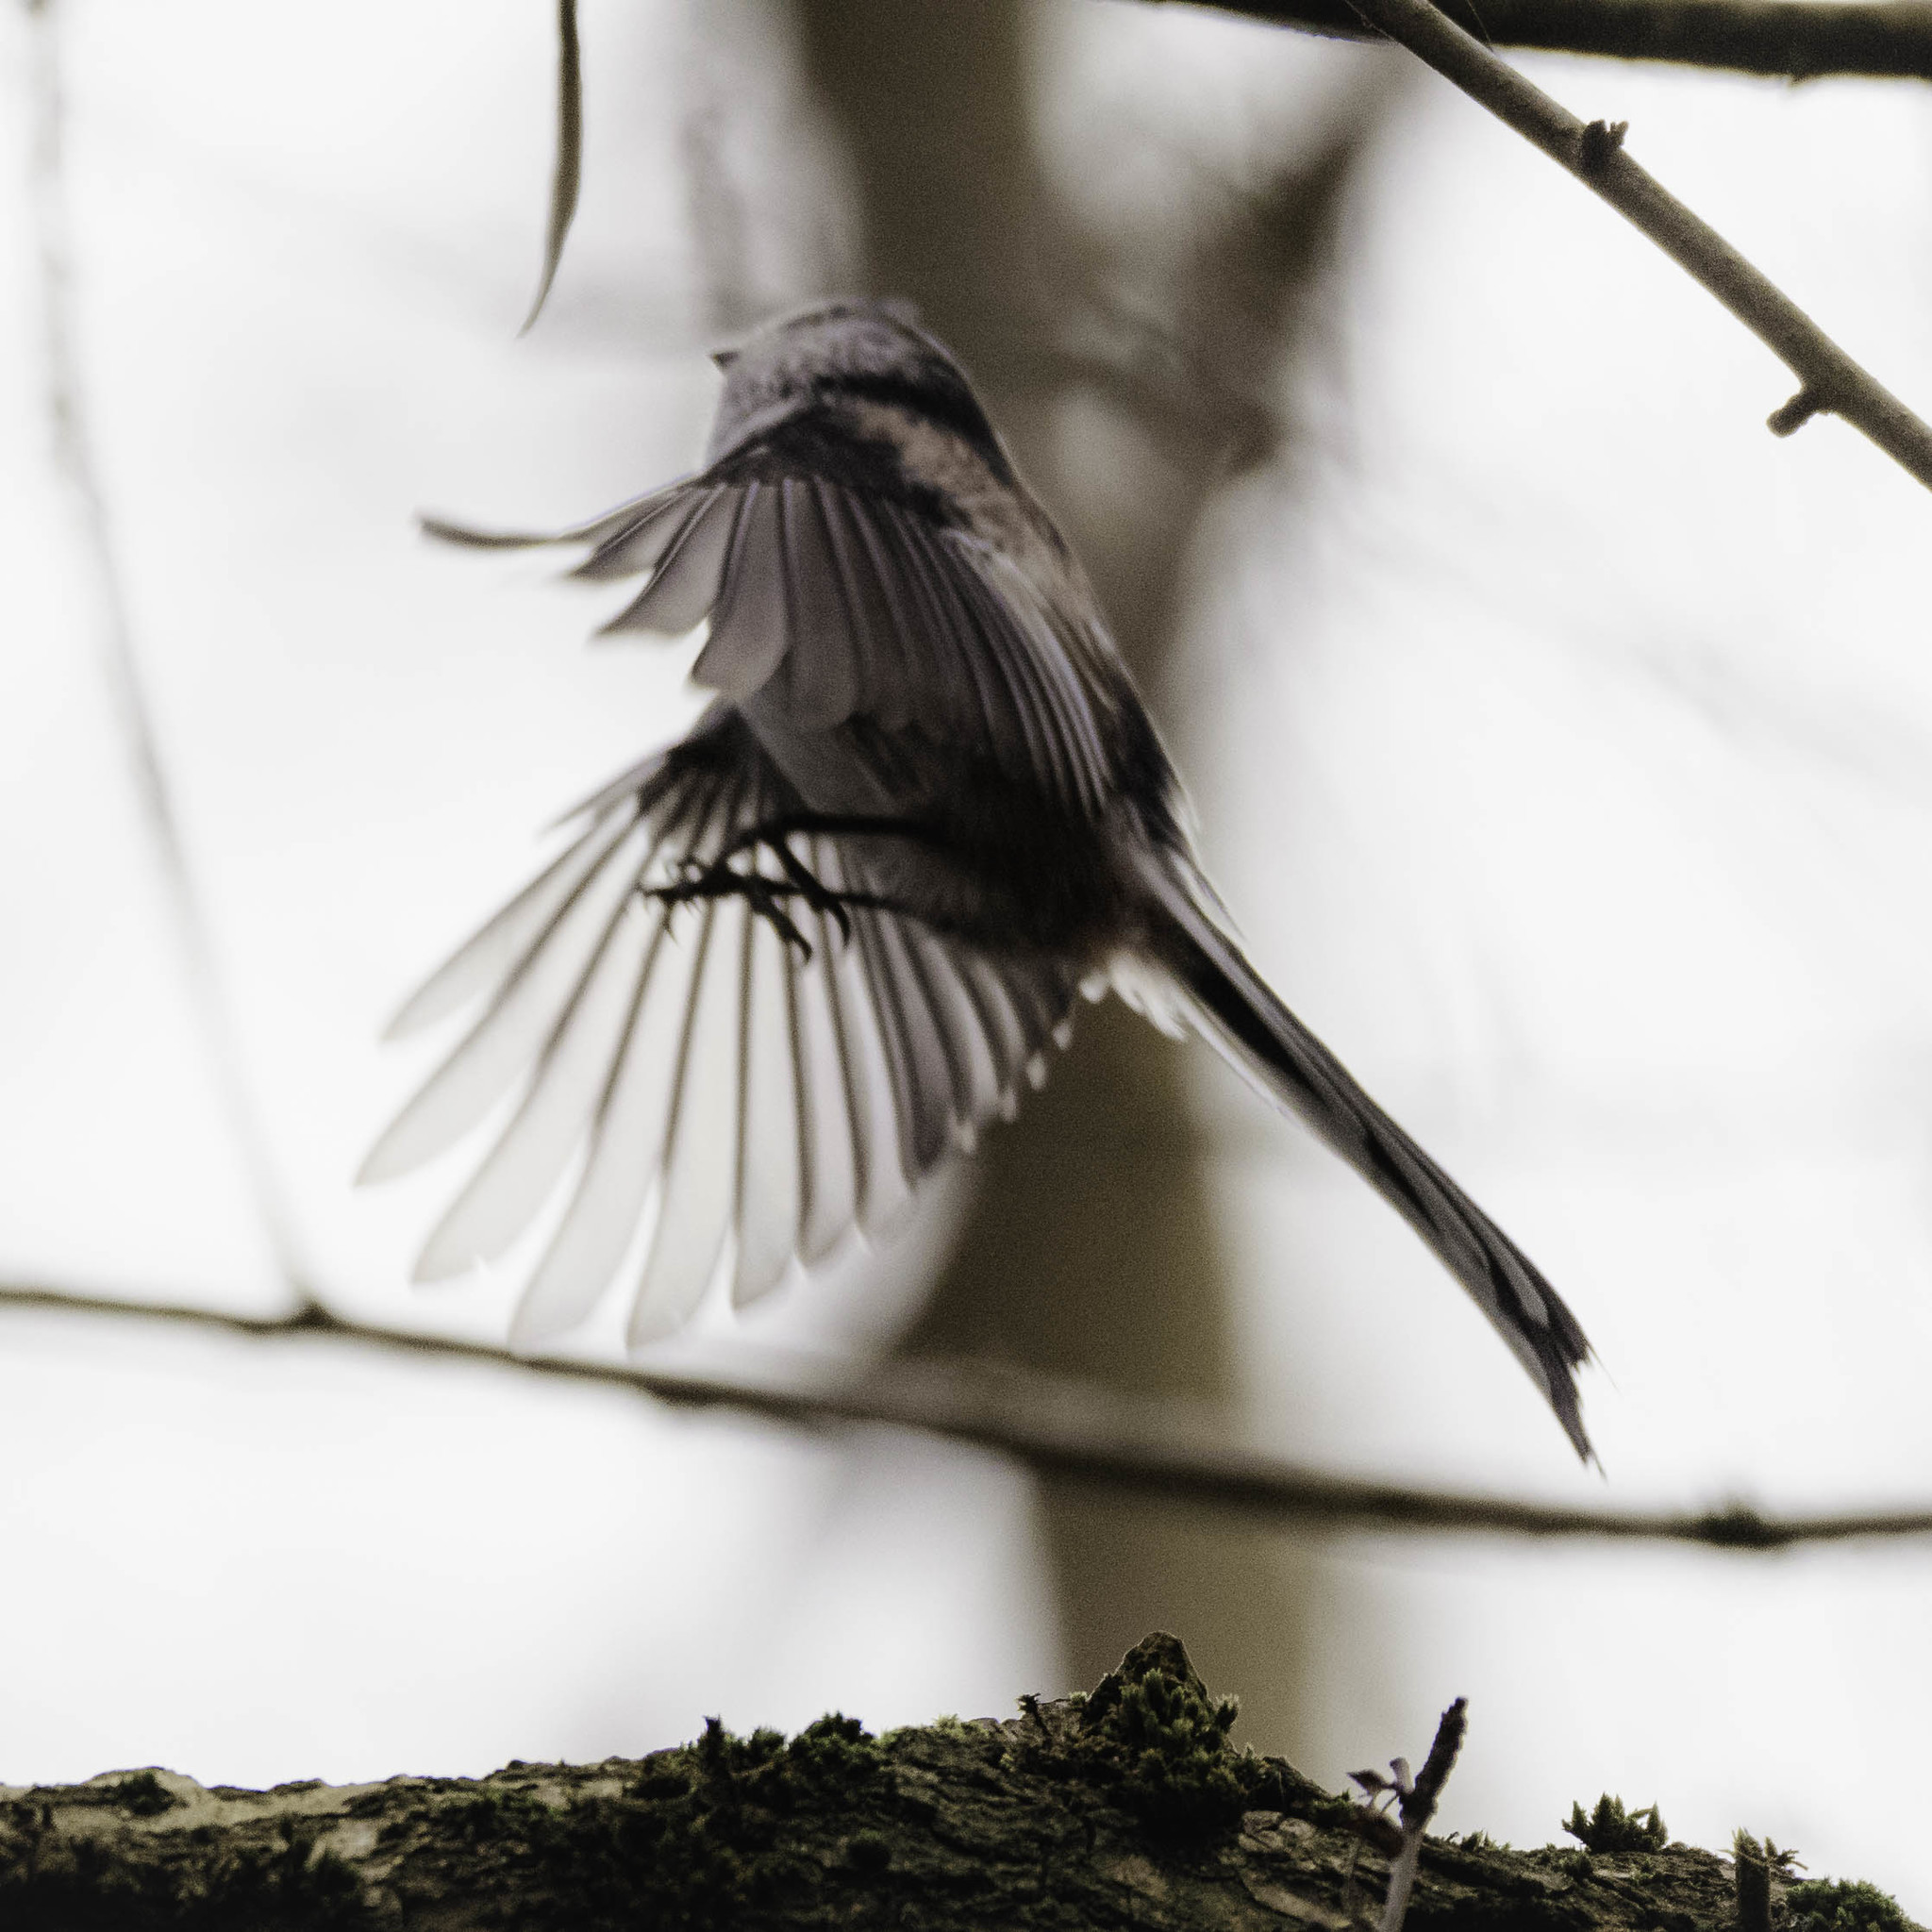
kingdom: Animalia
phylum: Chordata
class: Aves
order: Passeriformes
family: Aegithalidae
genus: Aegithalos
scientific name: Aegithalos caudatus
